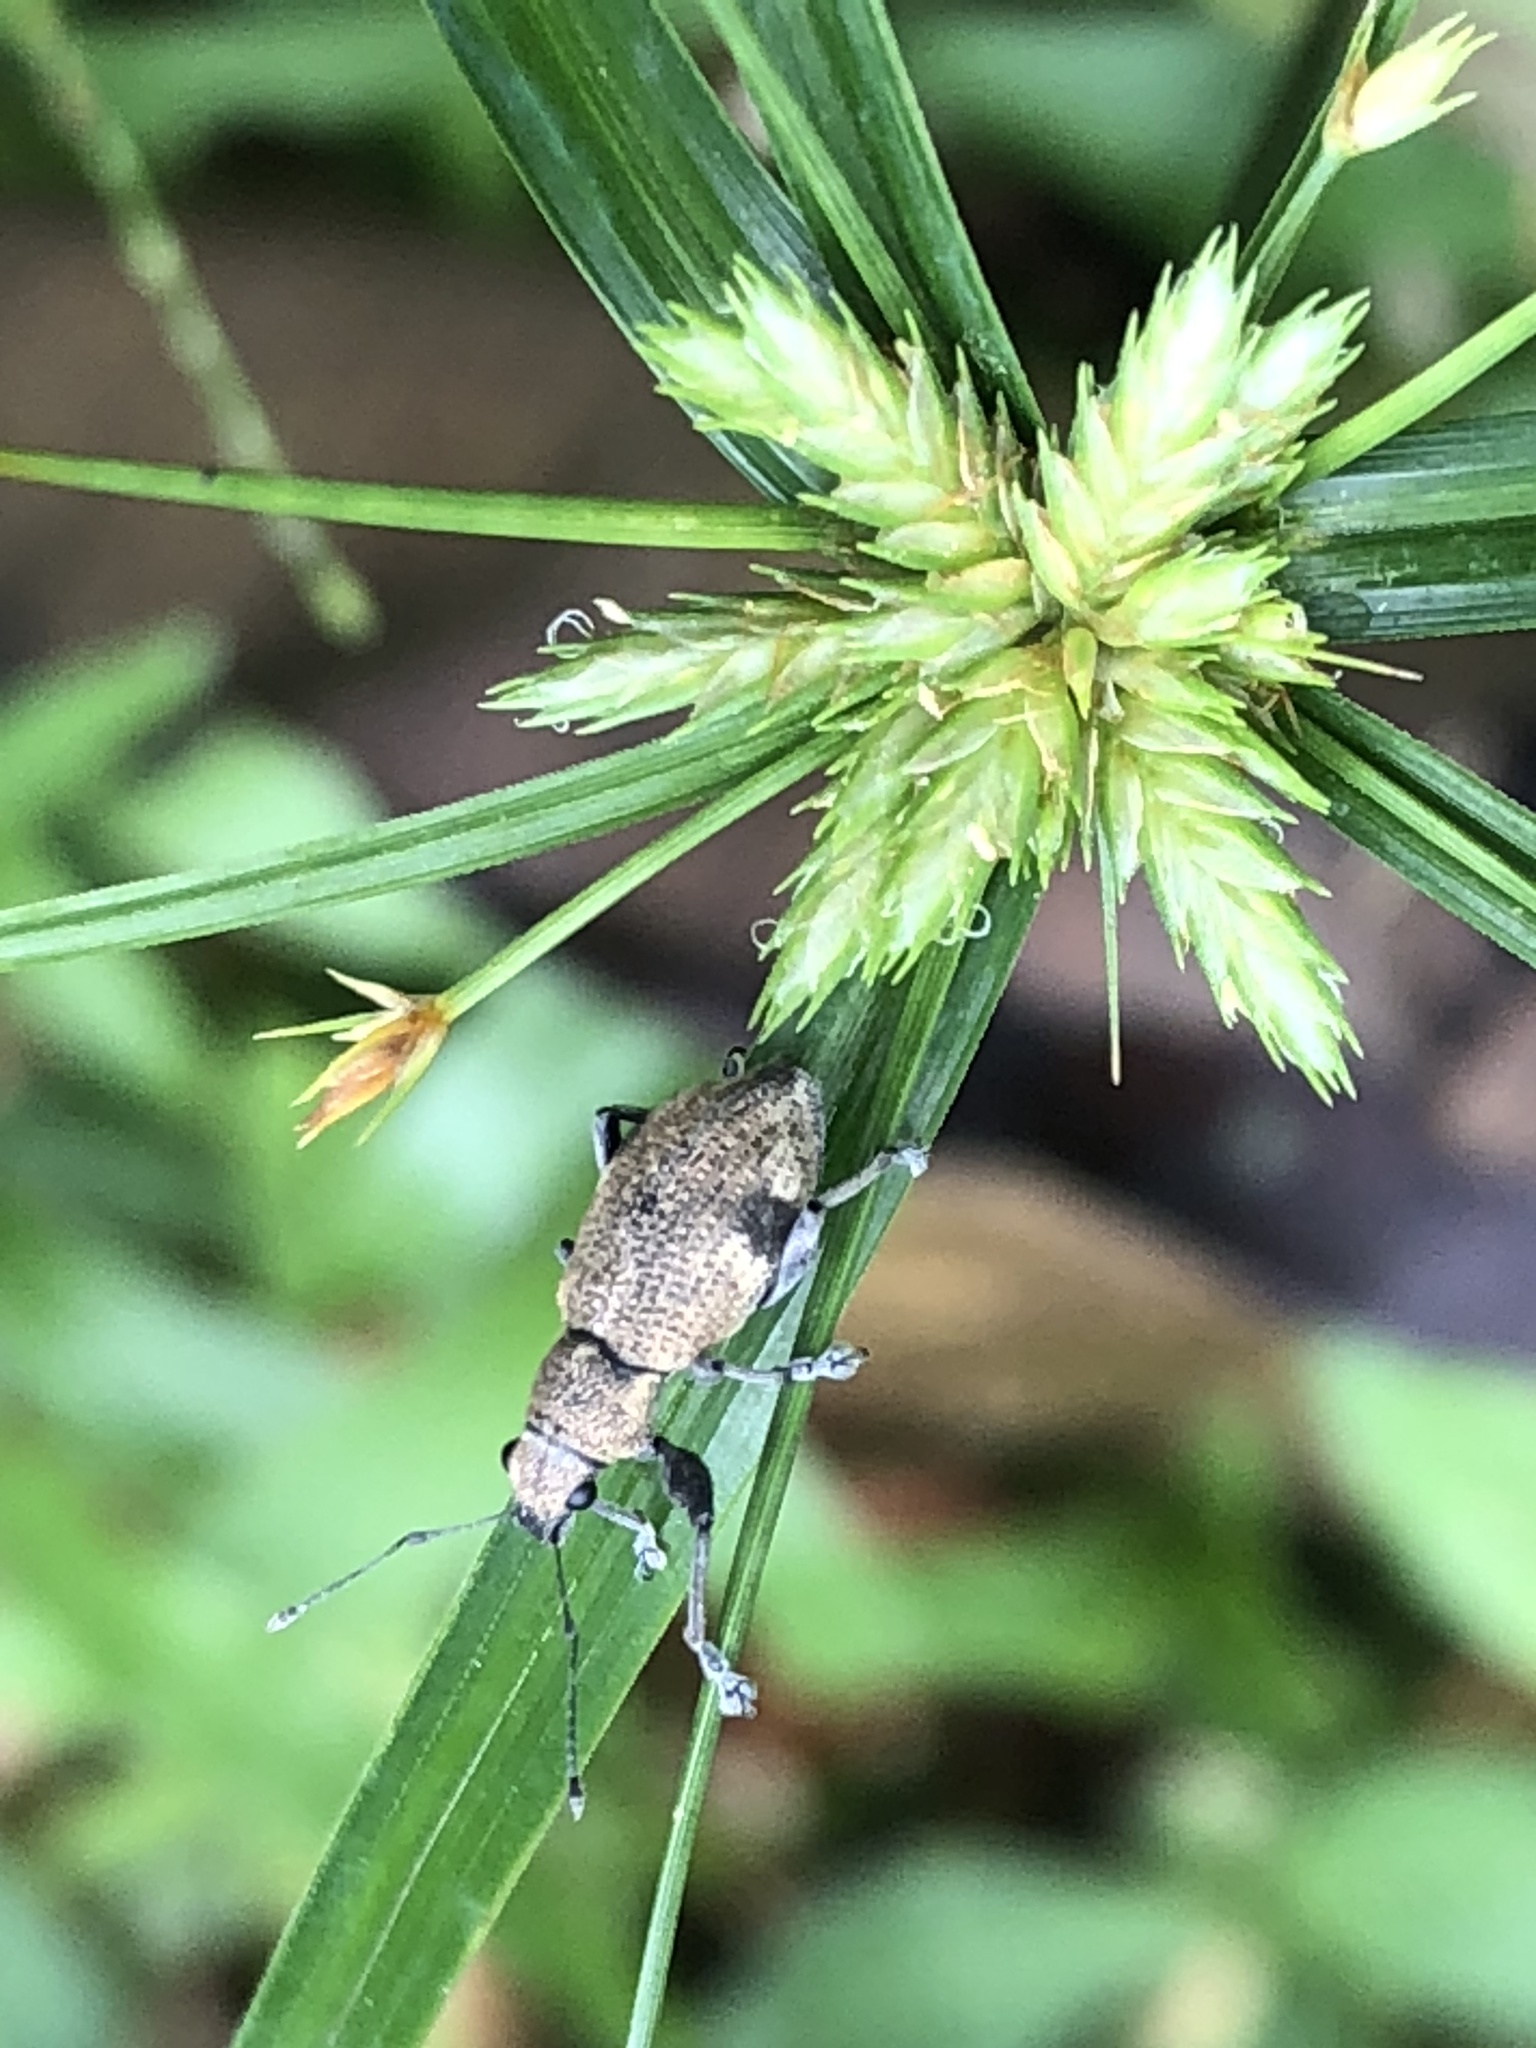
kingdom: Animalia
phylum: Arthropoda
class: Insecta
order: Coleoptera
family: Curculionidae
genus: Plectrophoroides
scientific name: Plectrophoroides bifasciatus
